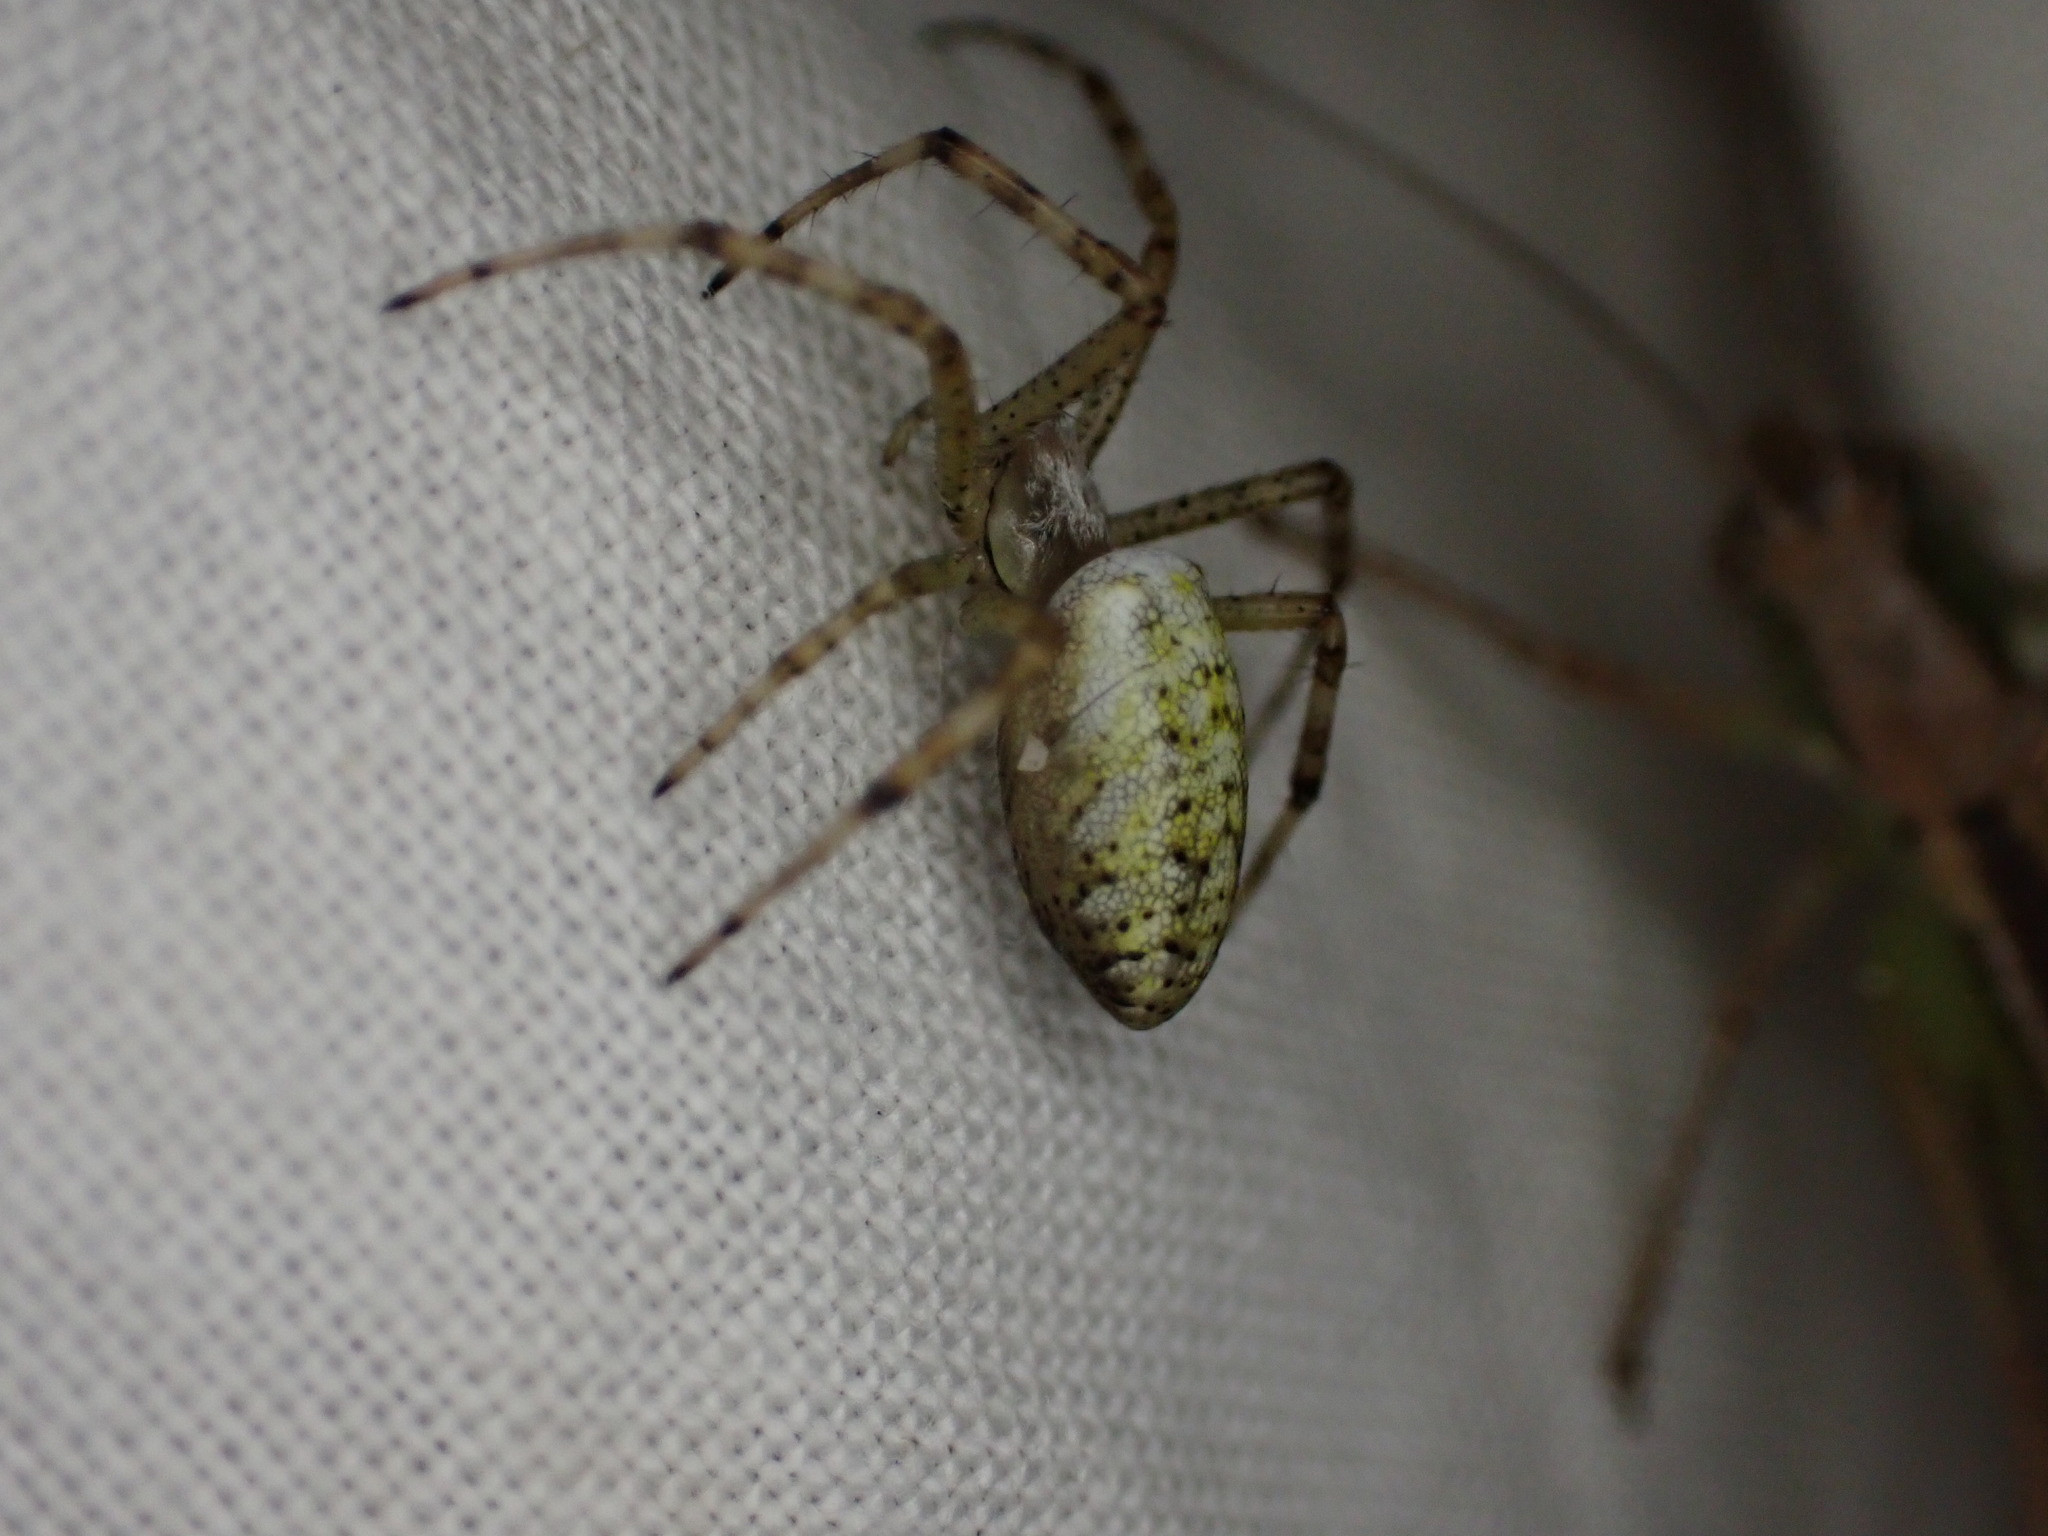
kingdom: Animalia
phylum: Arthropoda
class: Arachnida
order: Araneae
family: Araneidae
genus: Argiope
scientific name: Argiope bruennichi
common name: Wasp spider
